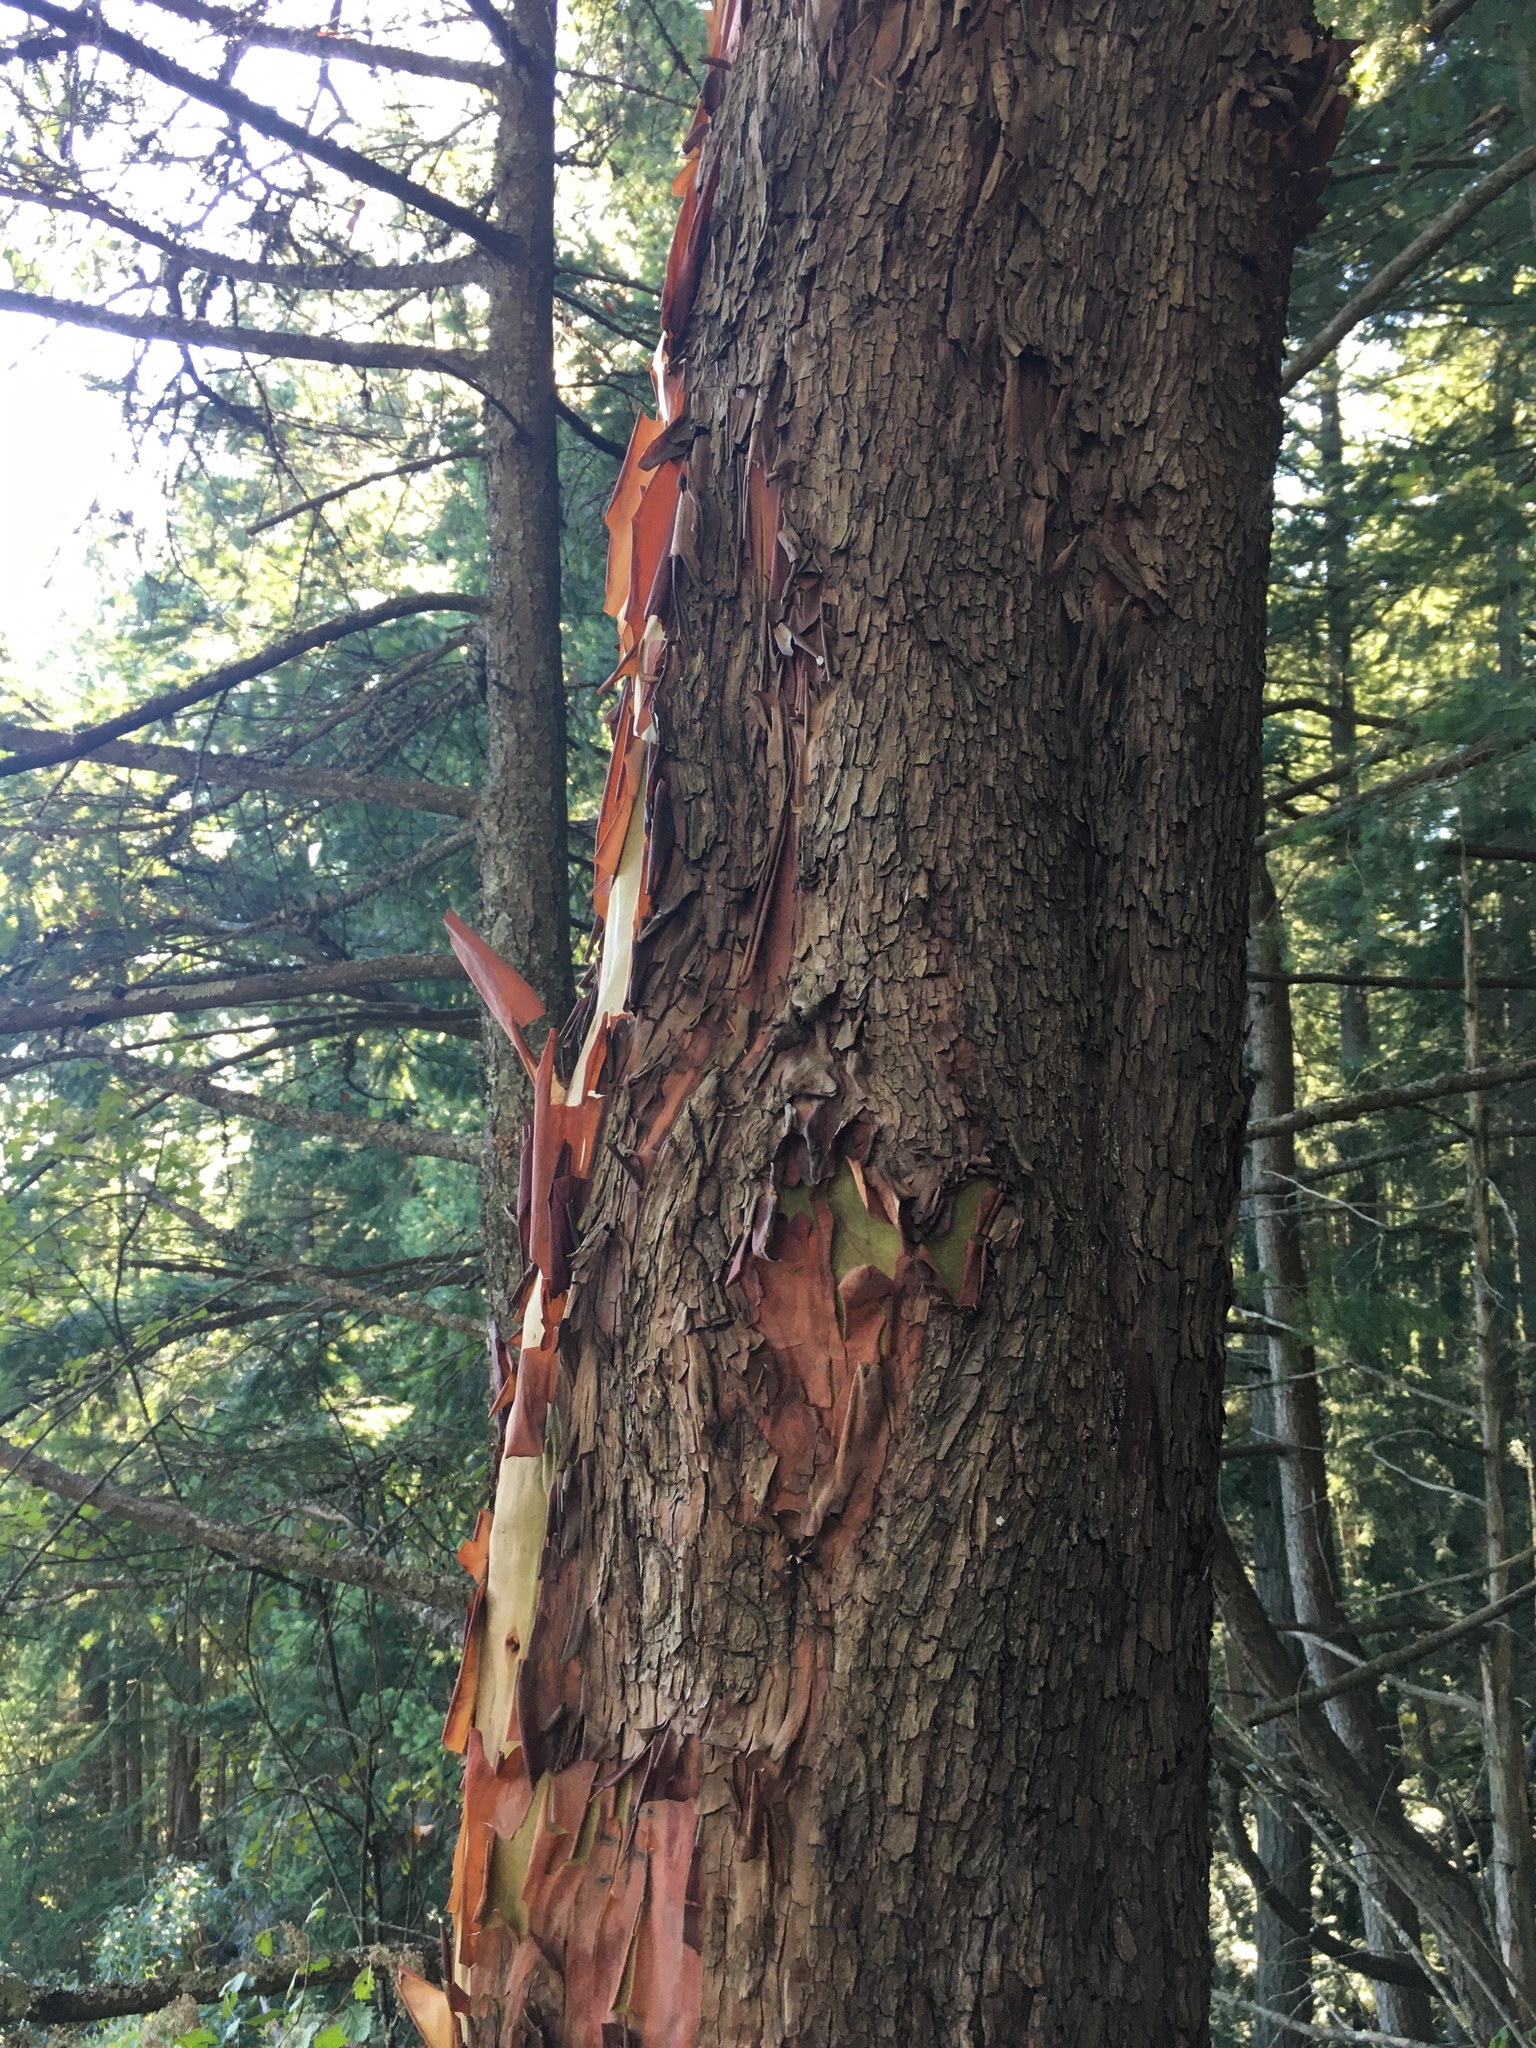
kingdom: Plantae
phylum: Tracheophyta
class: Magnoliopsida
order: Ericales
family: Ericaceae
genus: Arbutus
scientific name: Arbutus menziesii
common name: Pacific madrone
